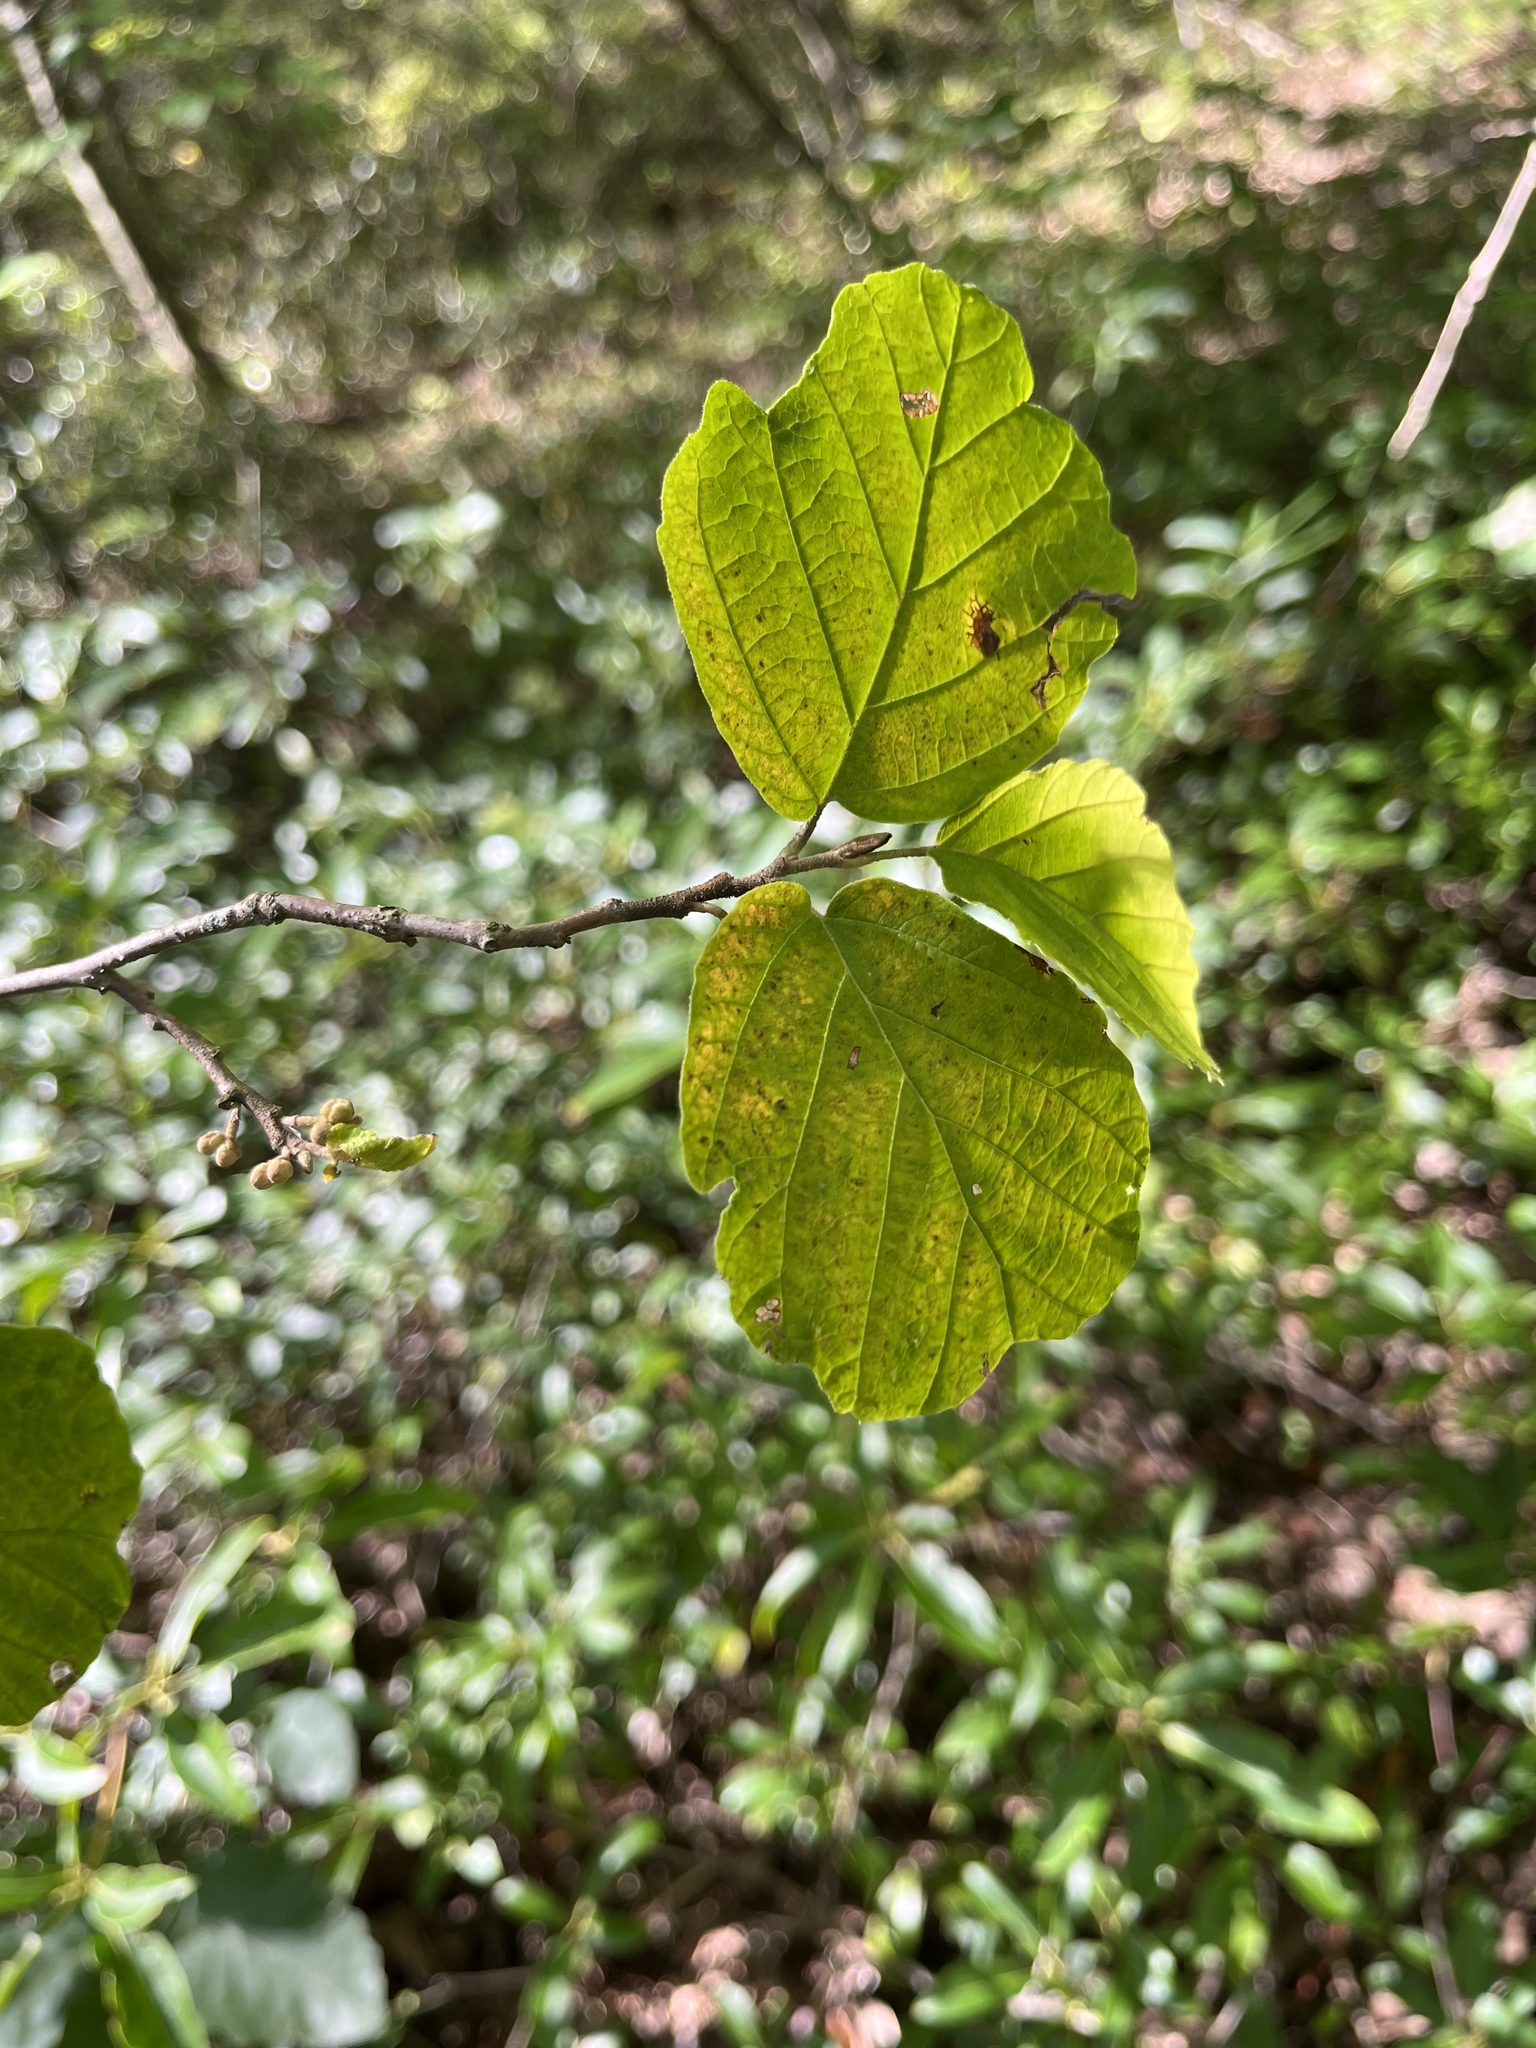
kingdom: Plantae
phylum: Tracheophyta
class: Magnoliopsida
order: Saxifragales
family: Hamamelidaceae
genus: Hamamelis
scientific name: Hamamelis virginiana
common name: Witch-hazel
